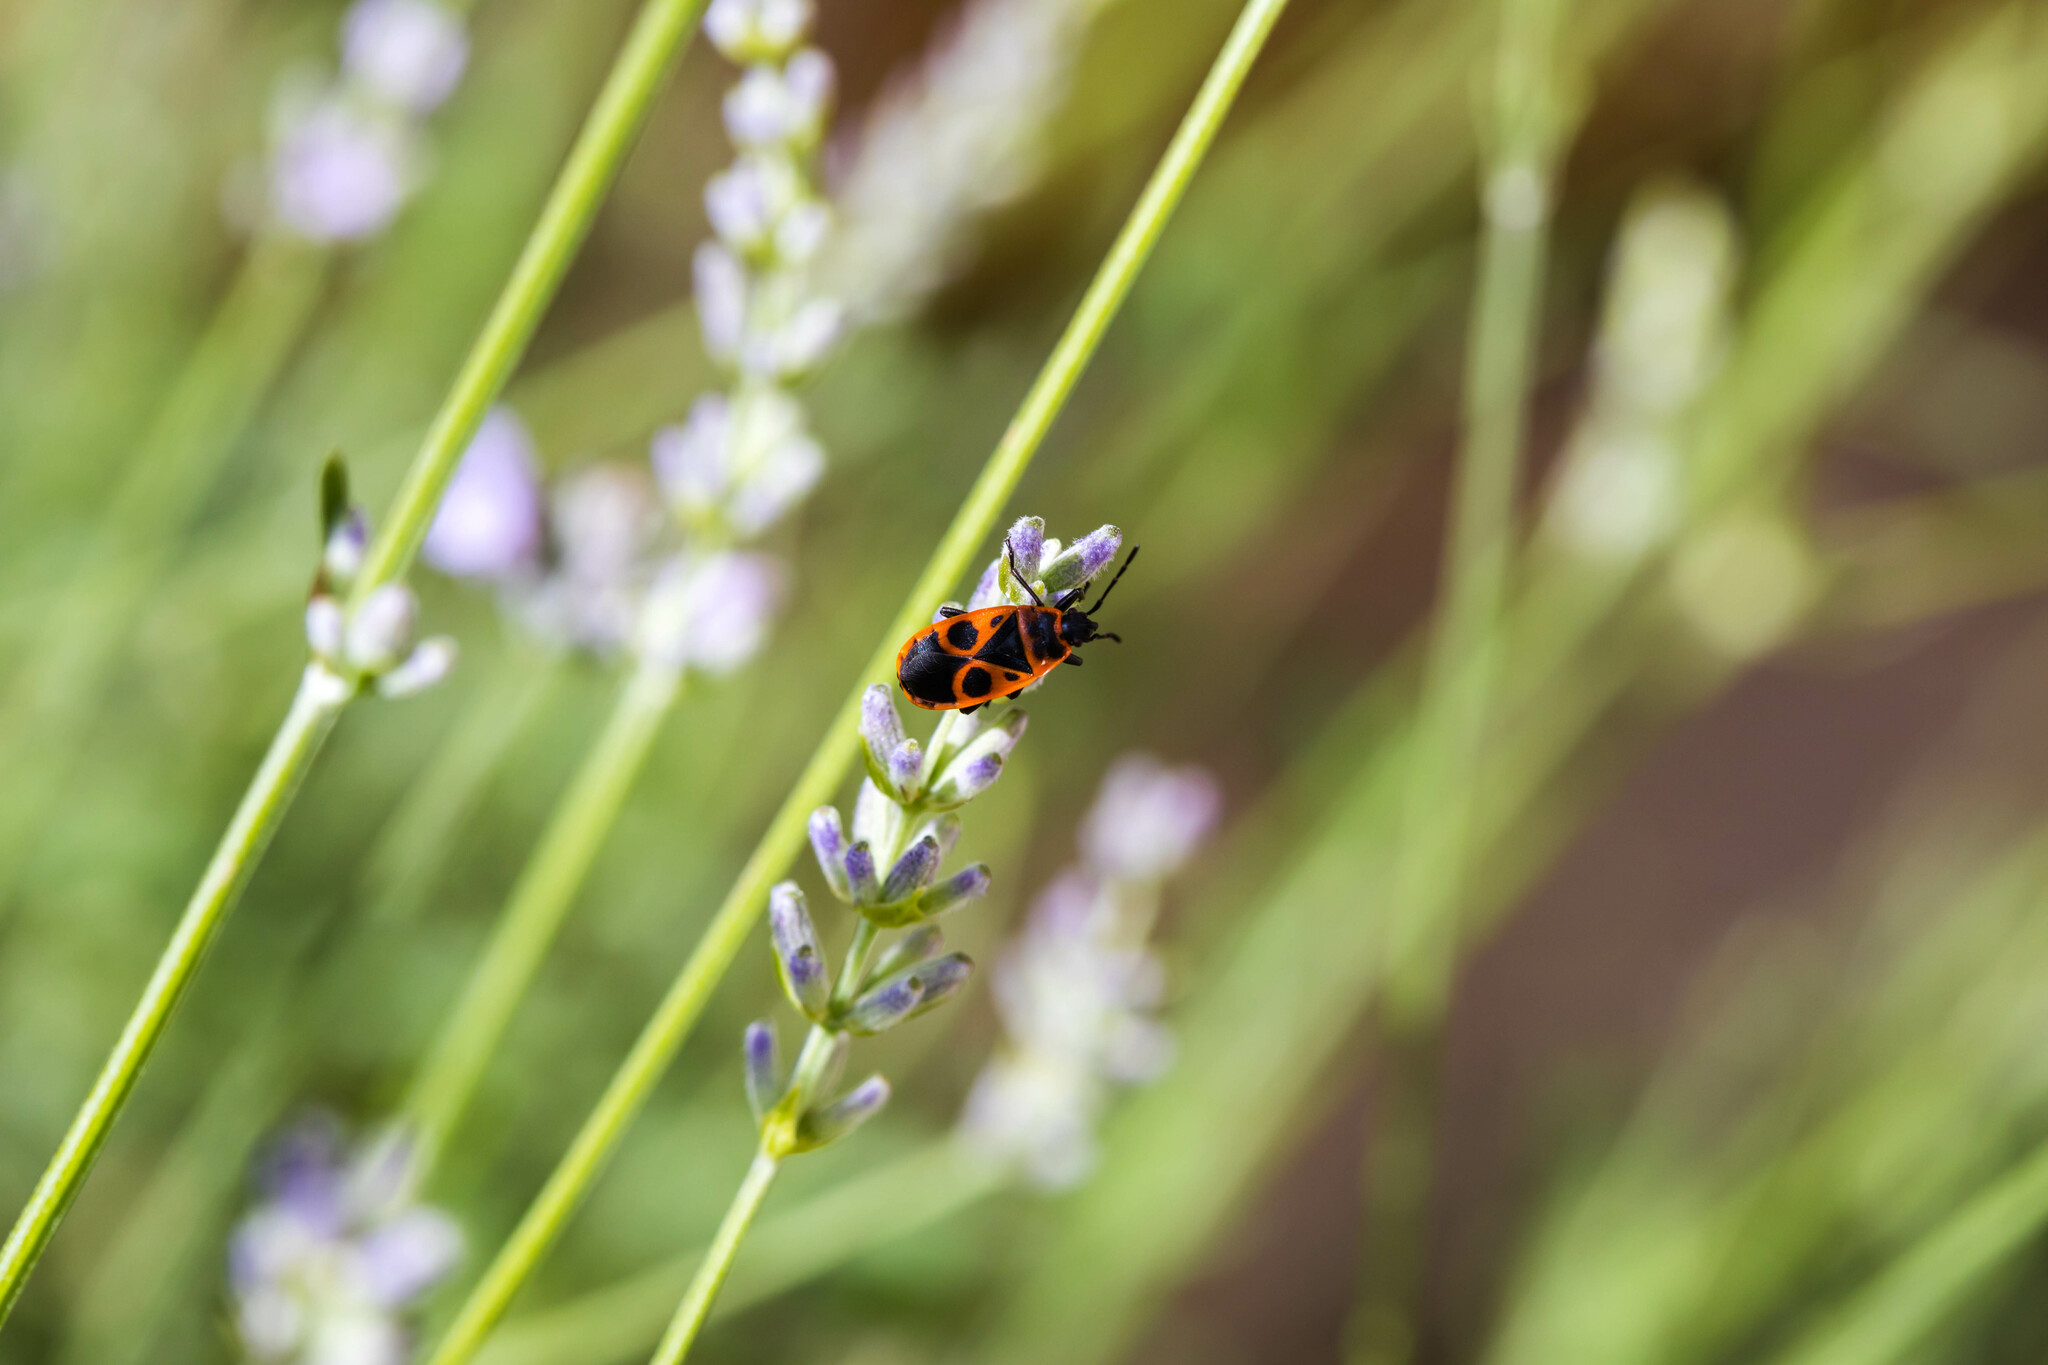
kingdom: Animalia
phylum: Arthropoda
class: Insecta
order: Hemiptera
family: Pyrrhocoridae
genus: Pyrrhocoris
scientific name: Pyrrhocoris apterus
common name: Firebug
